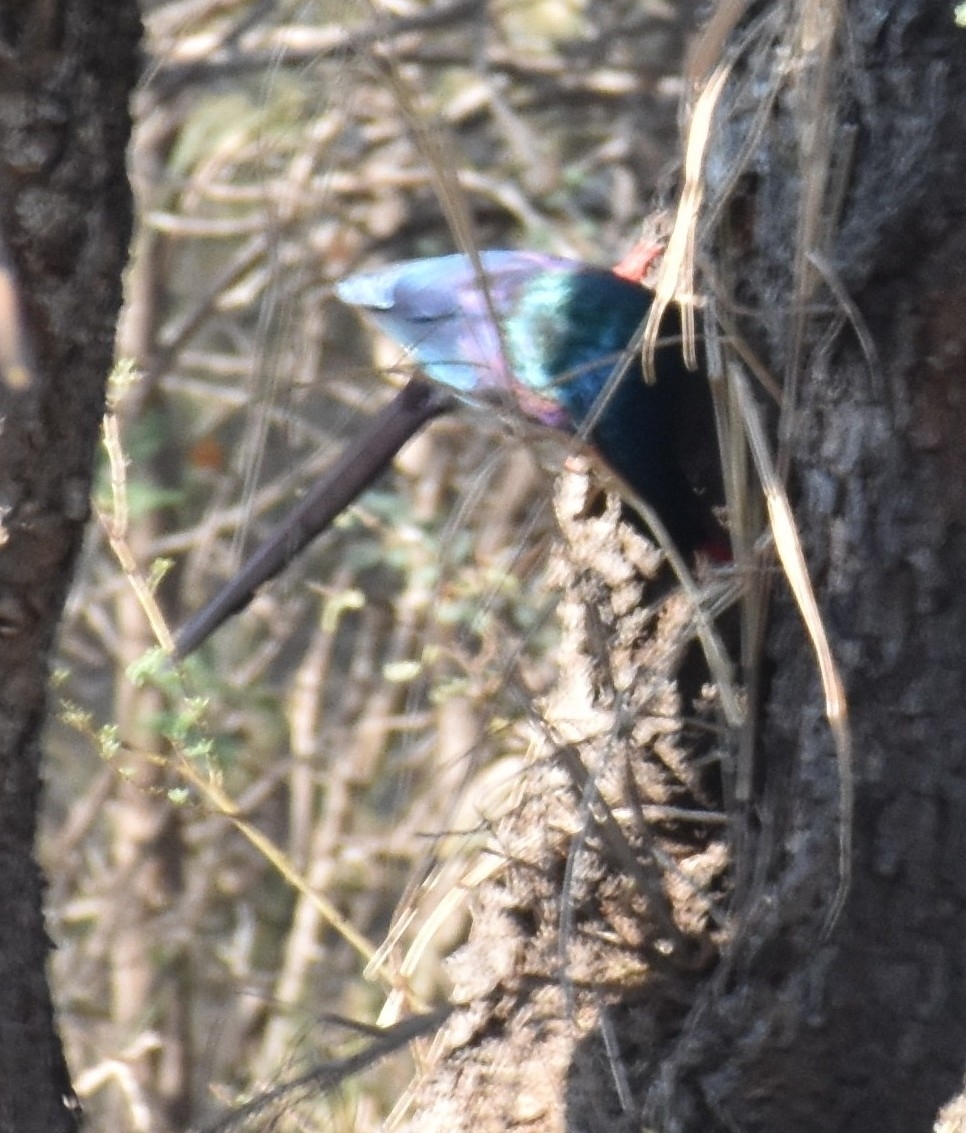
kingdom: Animalia
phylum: Chordata
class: Aves
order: Bucerotiformes
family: Phoeniculidae
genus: Phoeniculus
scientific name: Phoeniculus purpureus
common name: Green woodhoopoe
